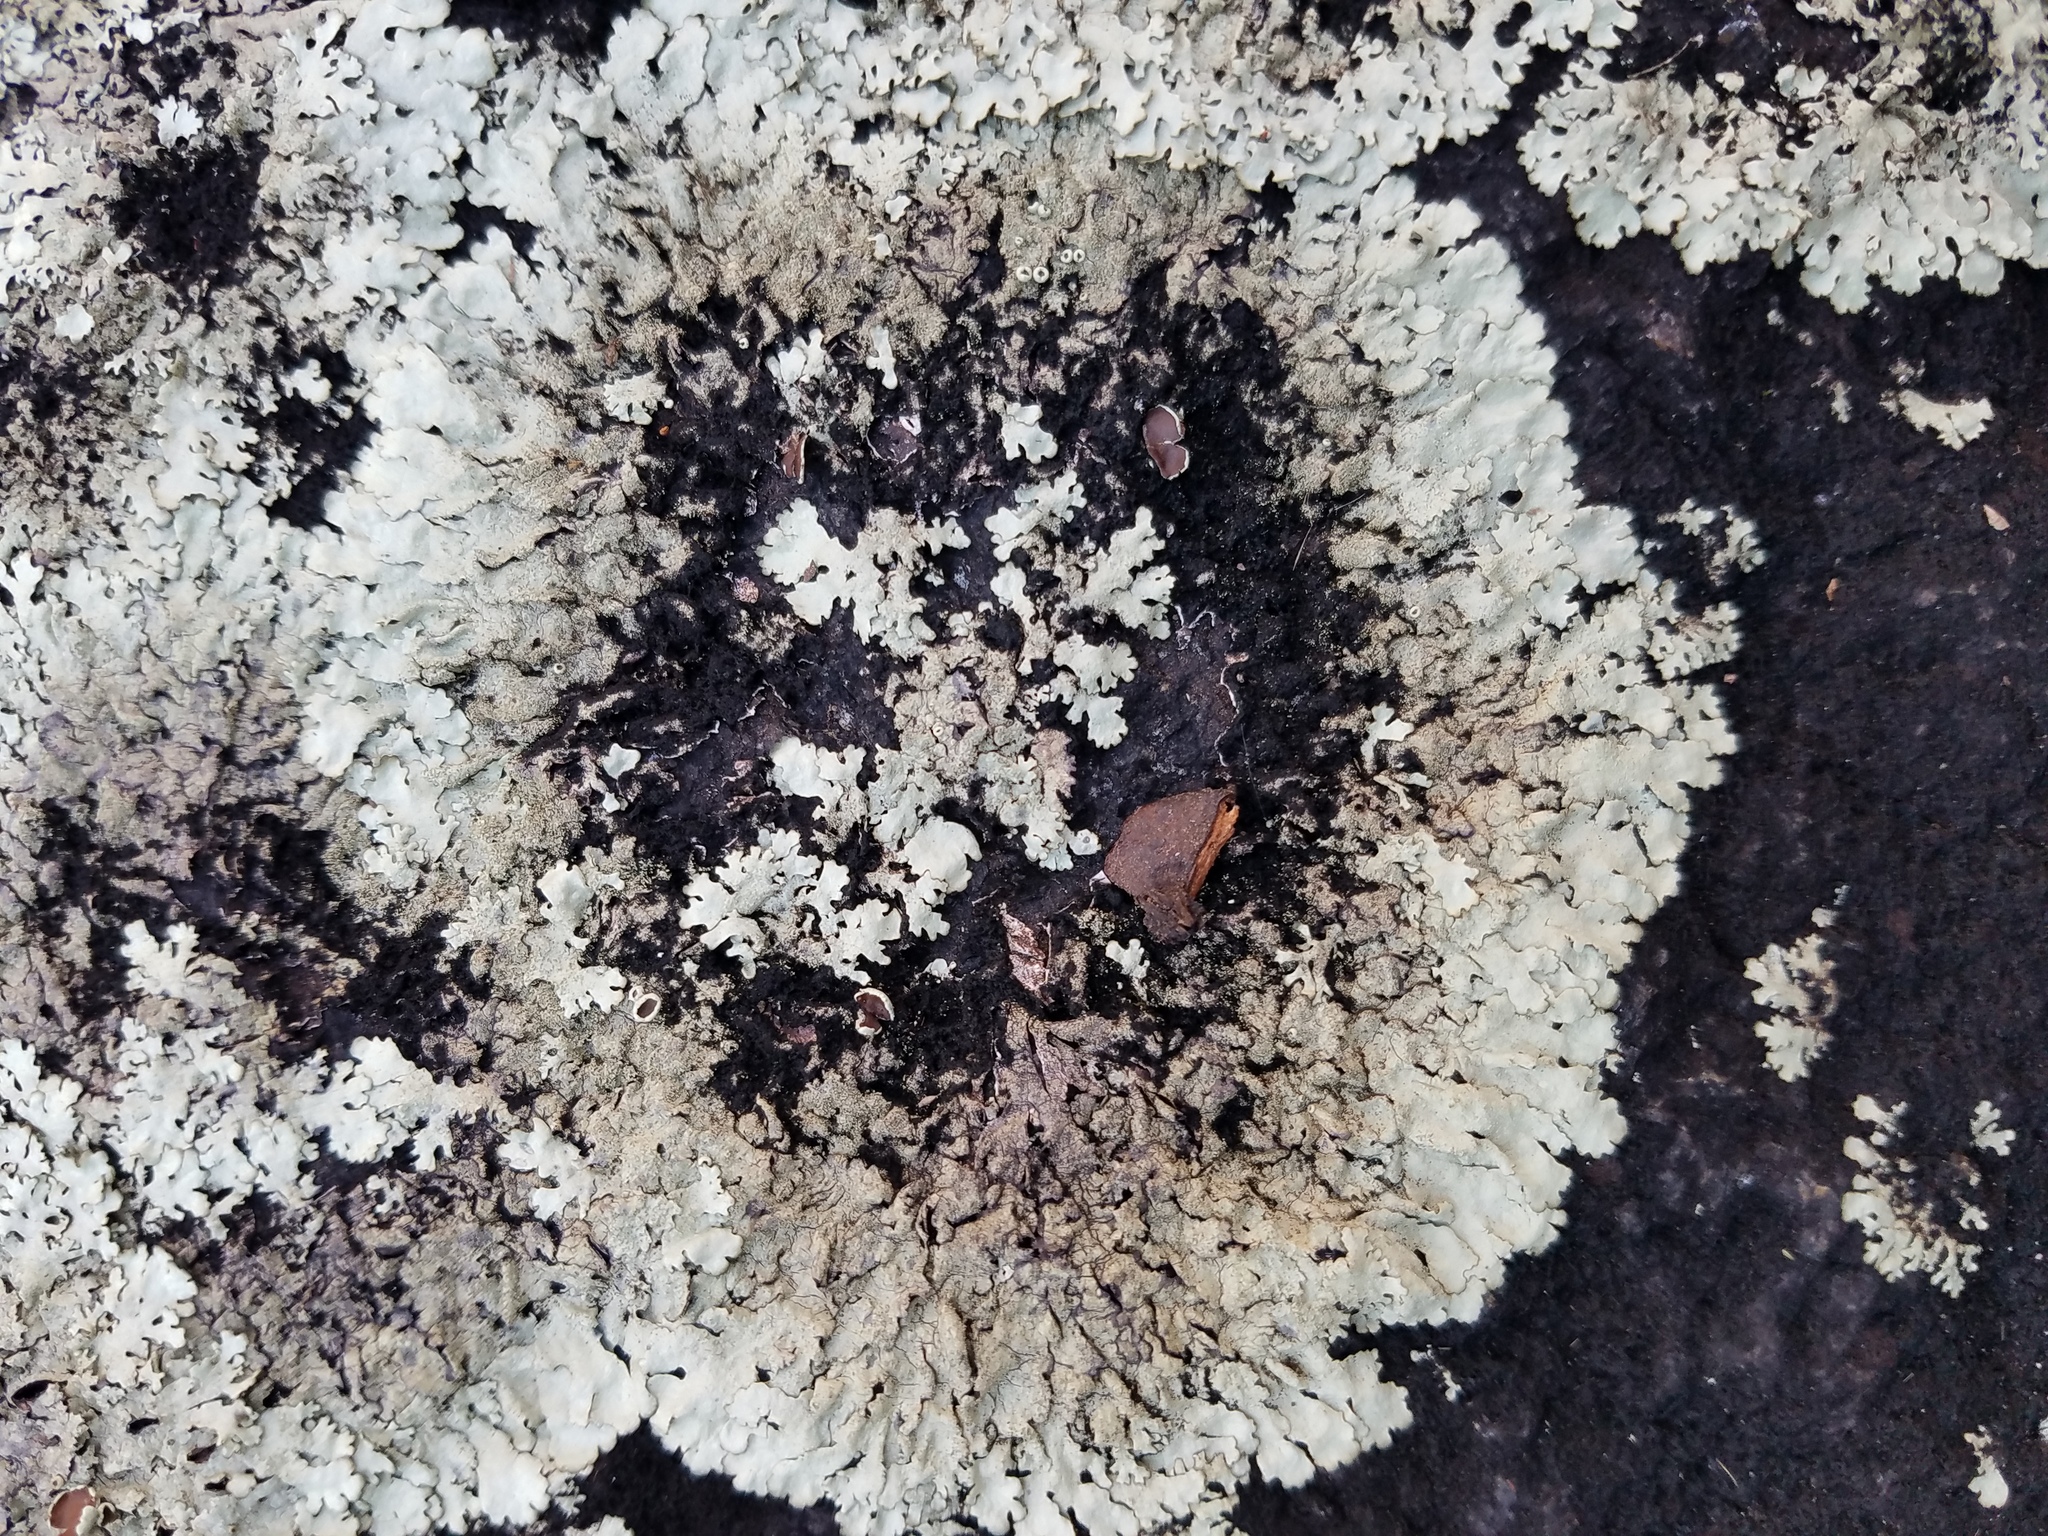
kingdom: Fungi
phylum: Ascomycota
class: Lecanoromycetes
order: Lecanorales
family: Parmeliaceae
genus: Xanthoparmelia
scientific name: Xanthoparmelia conspersa
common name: Peppered rock shield
